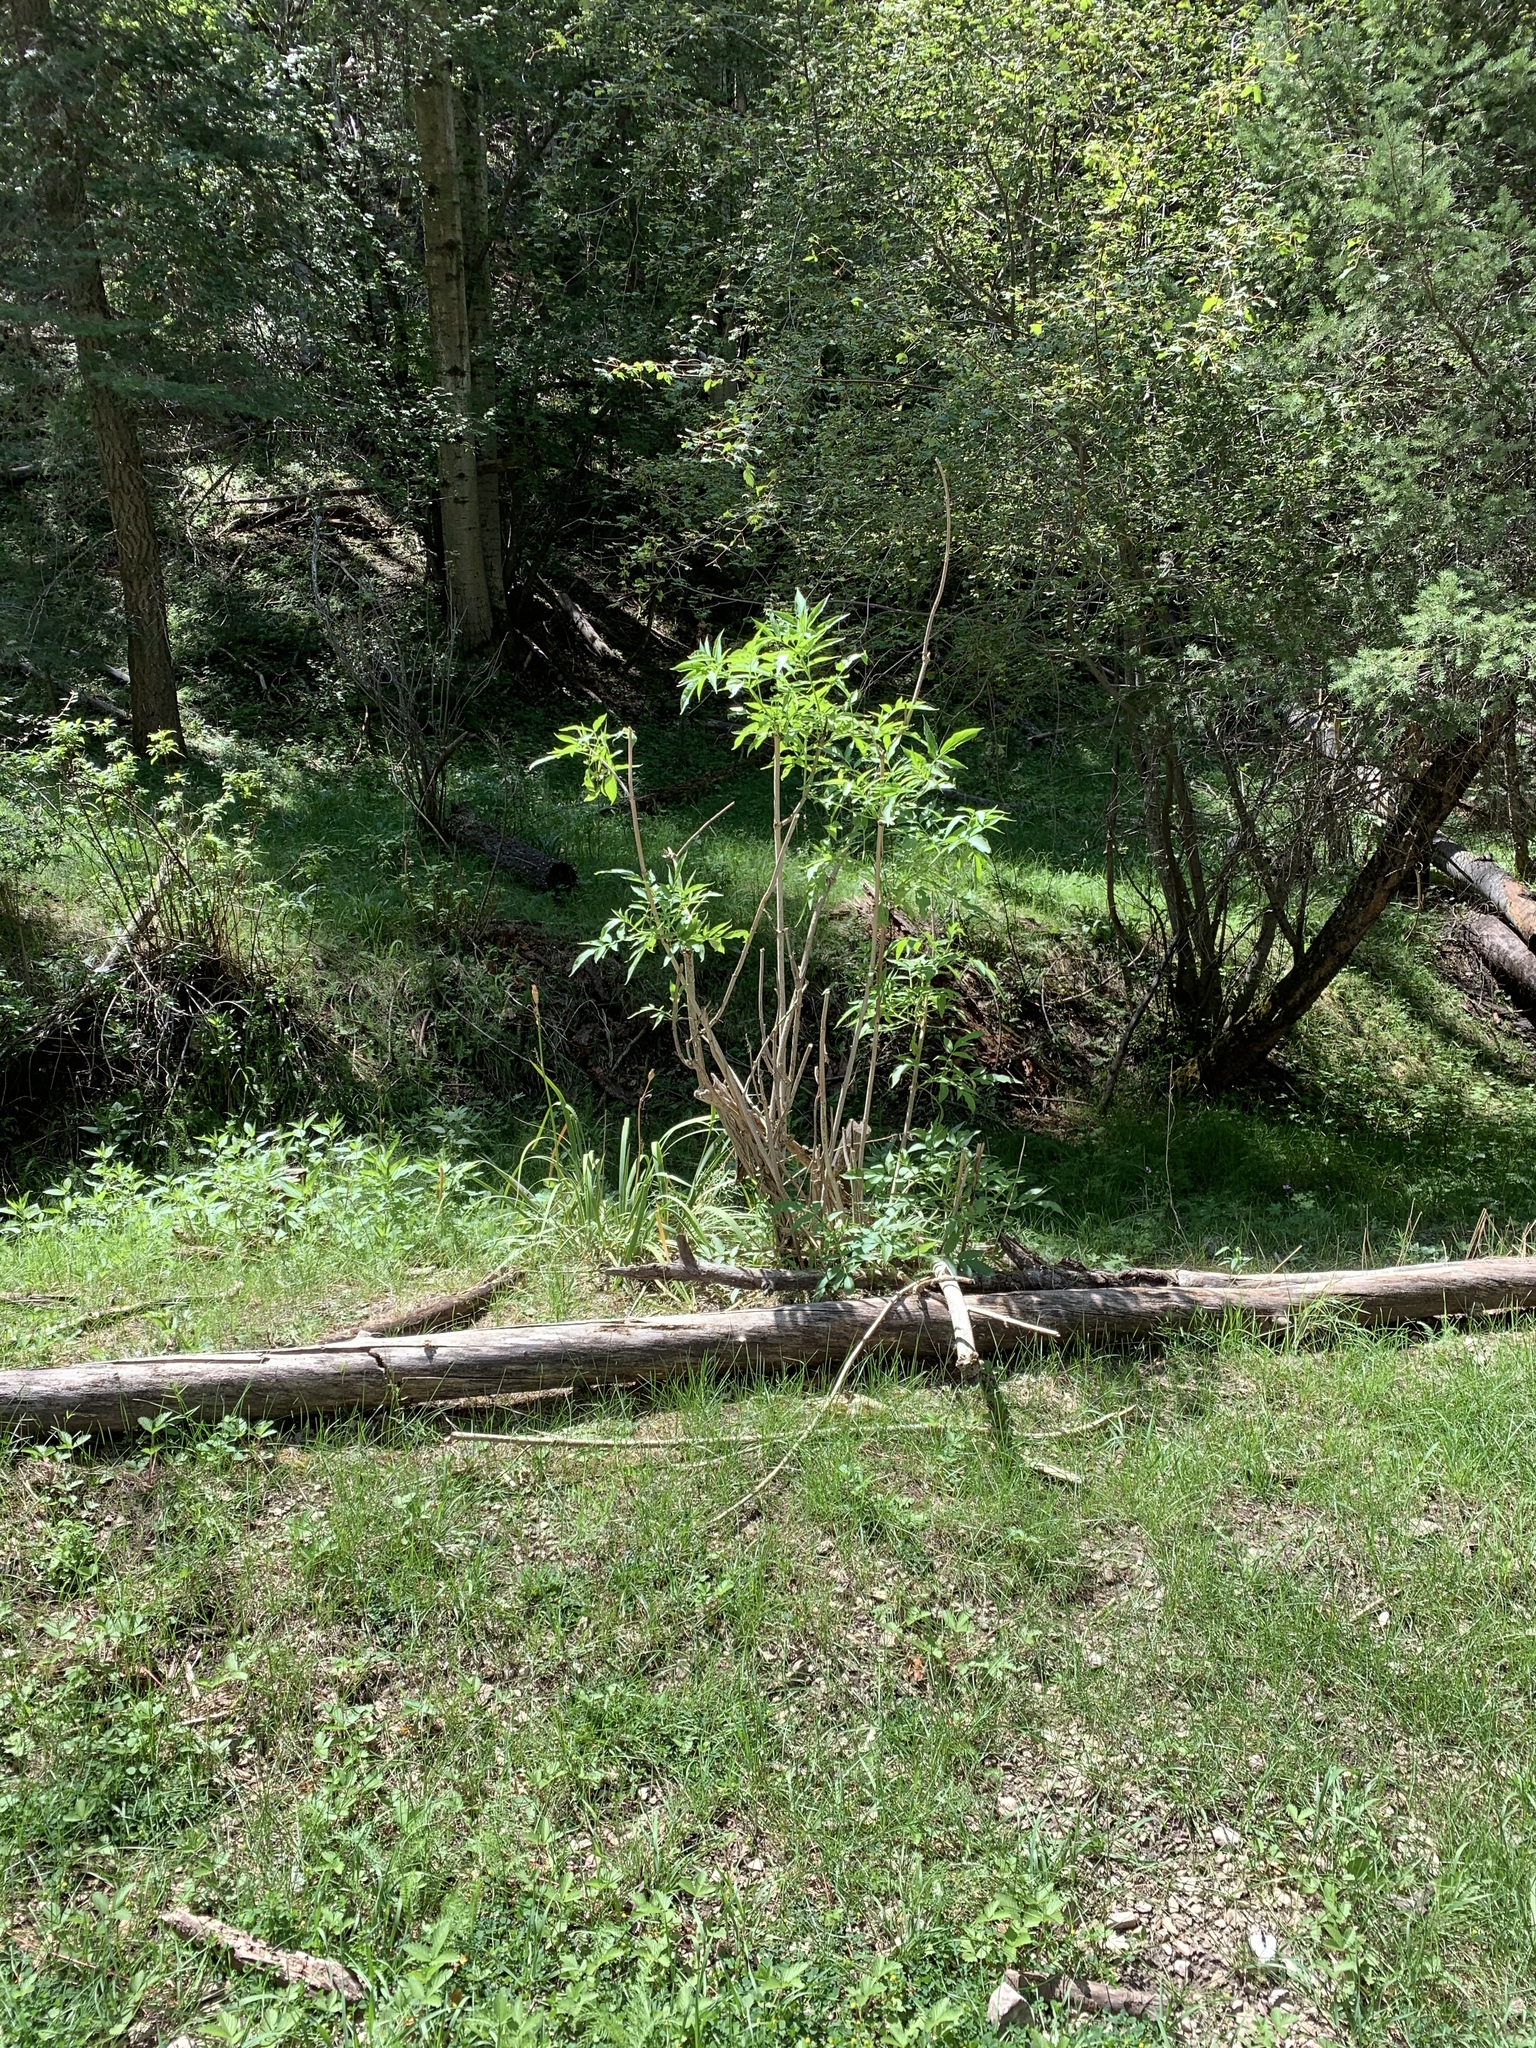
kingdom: Plantae
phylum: Tracheophyta
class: Magnoliopsida
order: Dipsacales
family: Viburnaceae
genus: Sambucus
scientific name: Sambucus cerulea
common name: Blue elder
